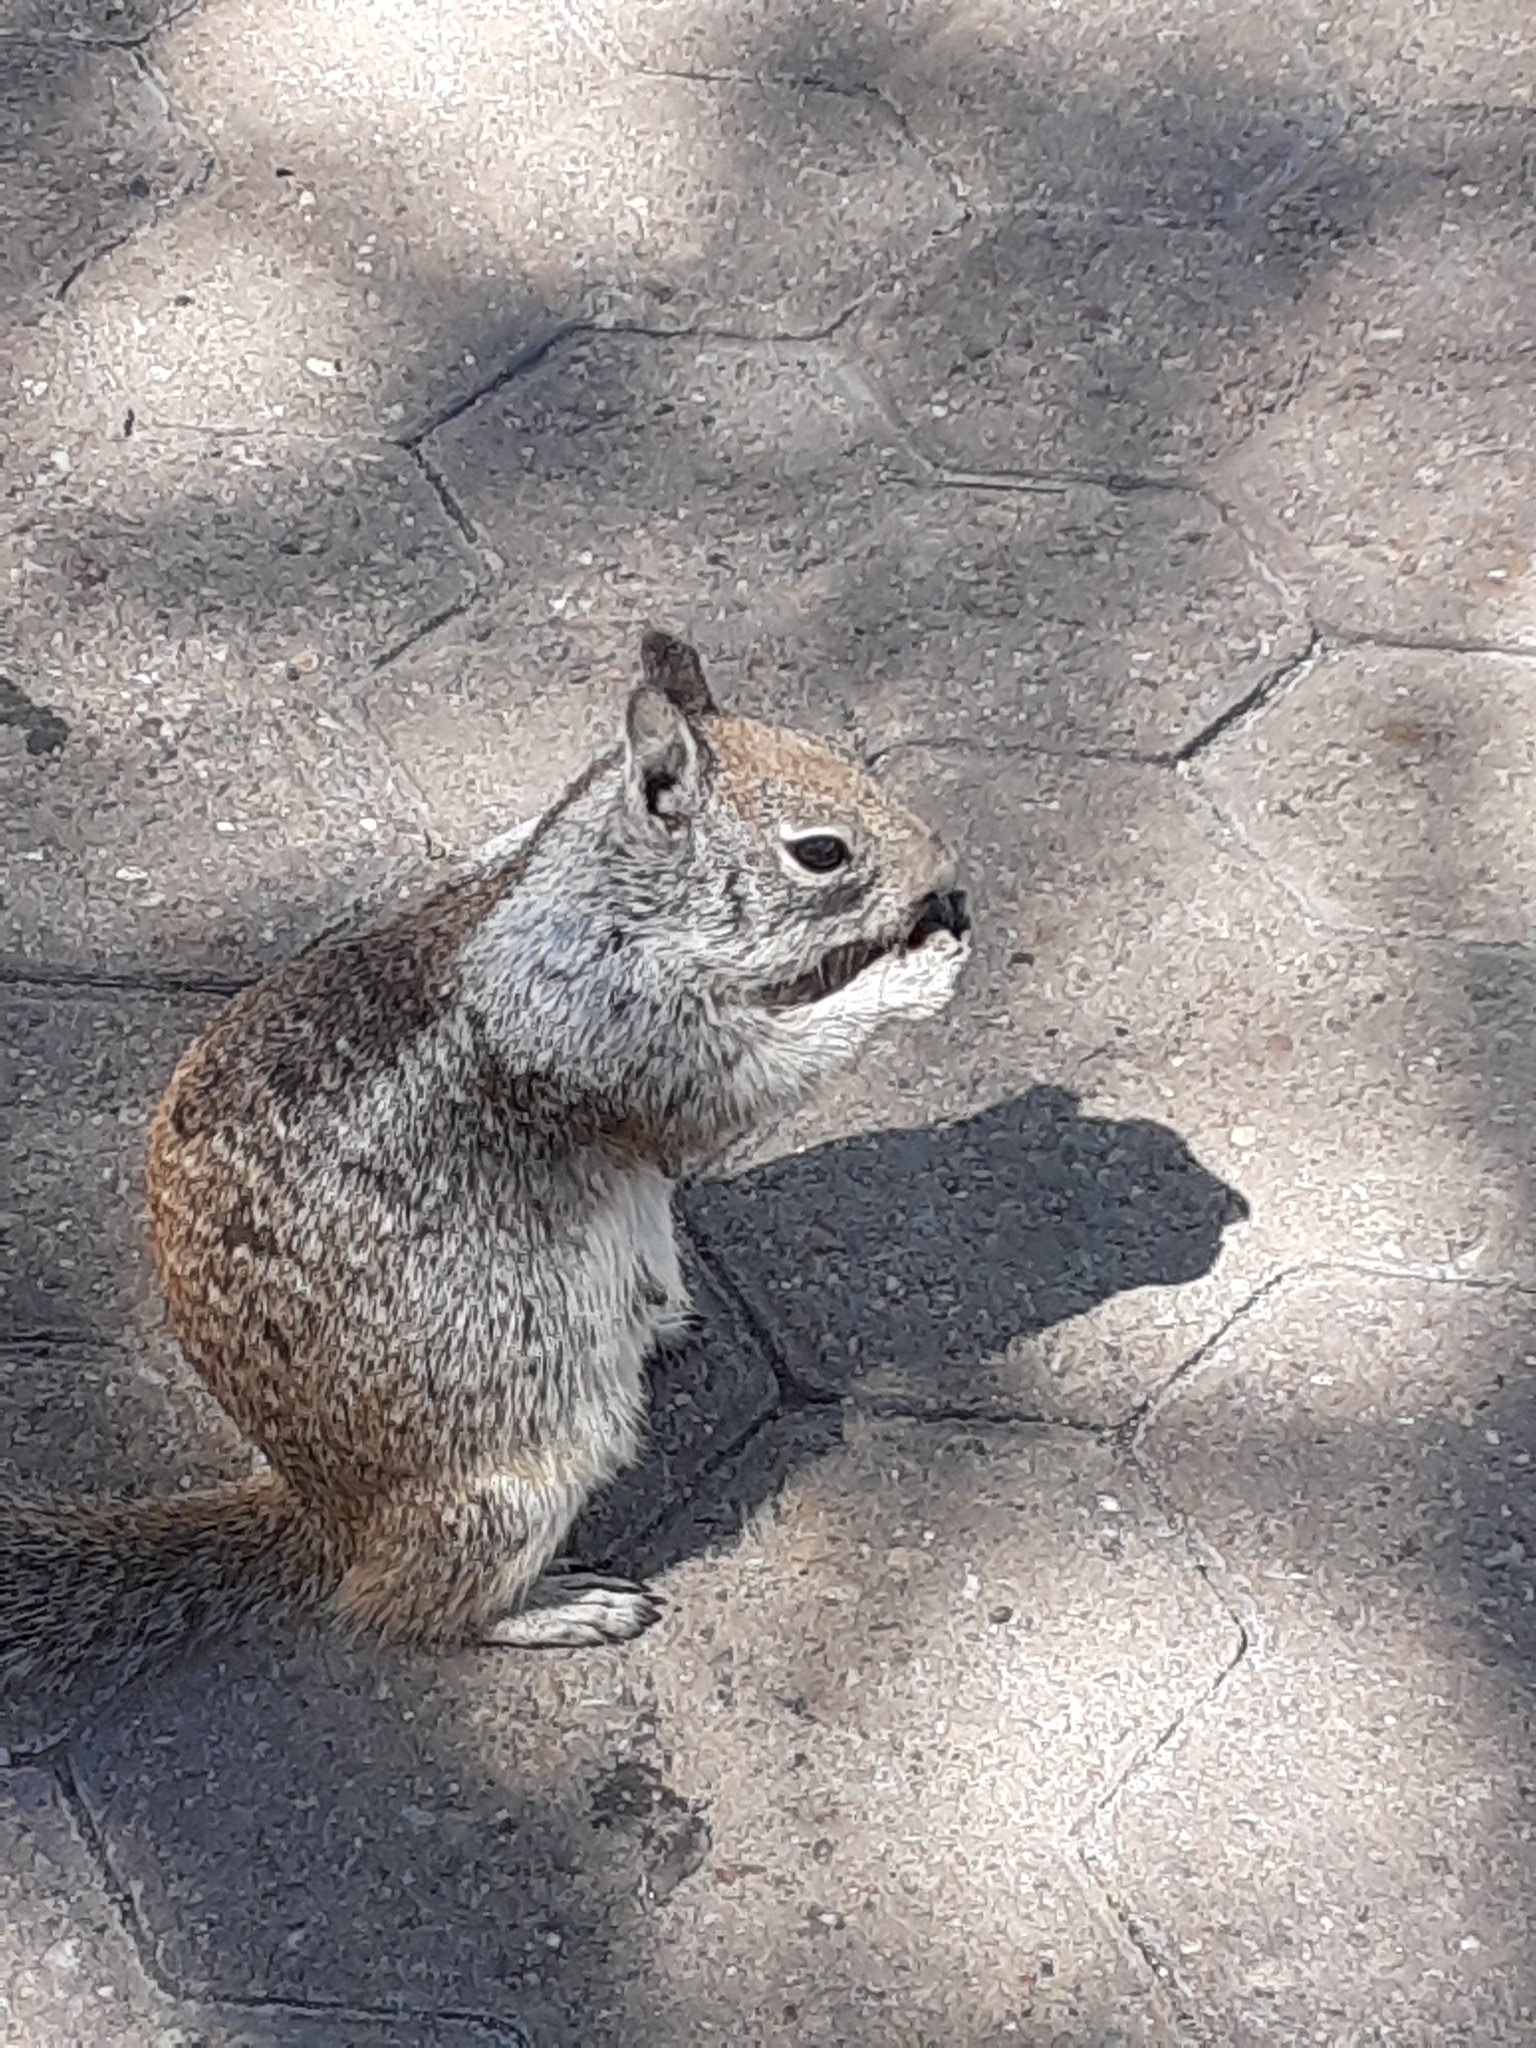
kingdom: Animalia
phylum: Chordata
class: Mammalia
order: Rodentia
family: Sciuridae
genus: Otospermophilus
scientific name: Otospermophilus beecheyi
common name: California ground squirrel
